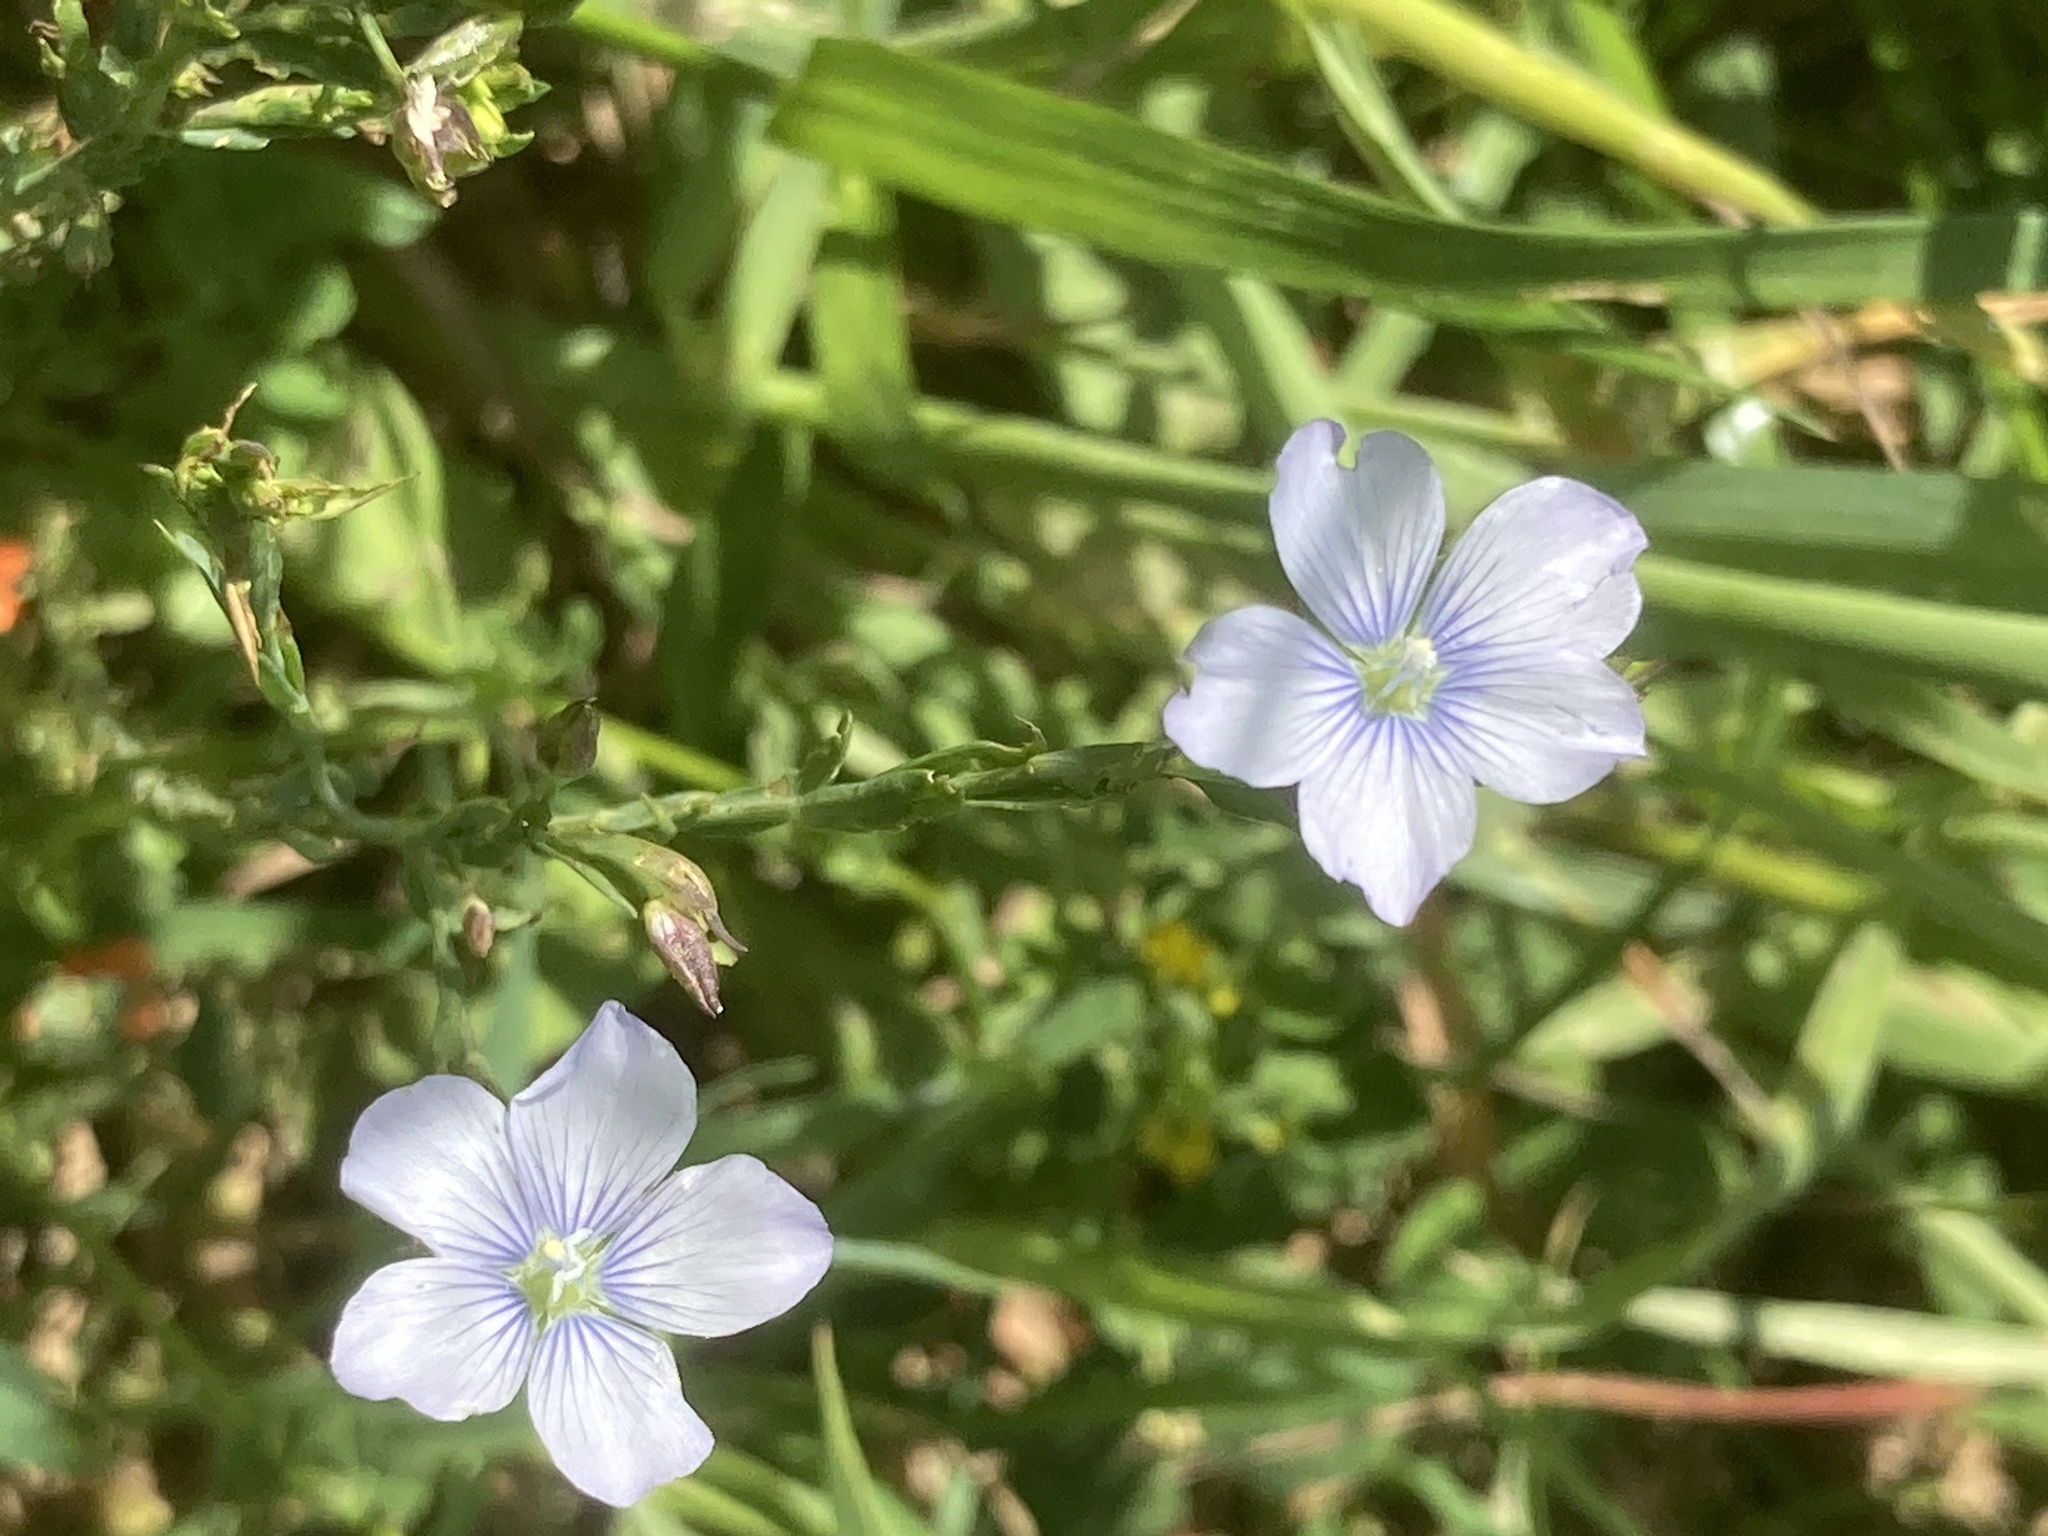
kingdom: Plantae
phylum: Tracheophyta
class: Magnoliopsida
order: Malpighiales
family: Linaceae
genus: Linum
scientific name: Linum bienne
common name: Pale flax
